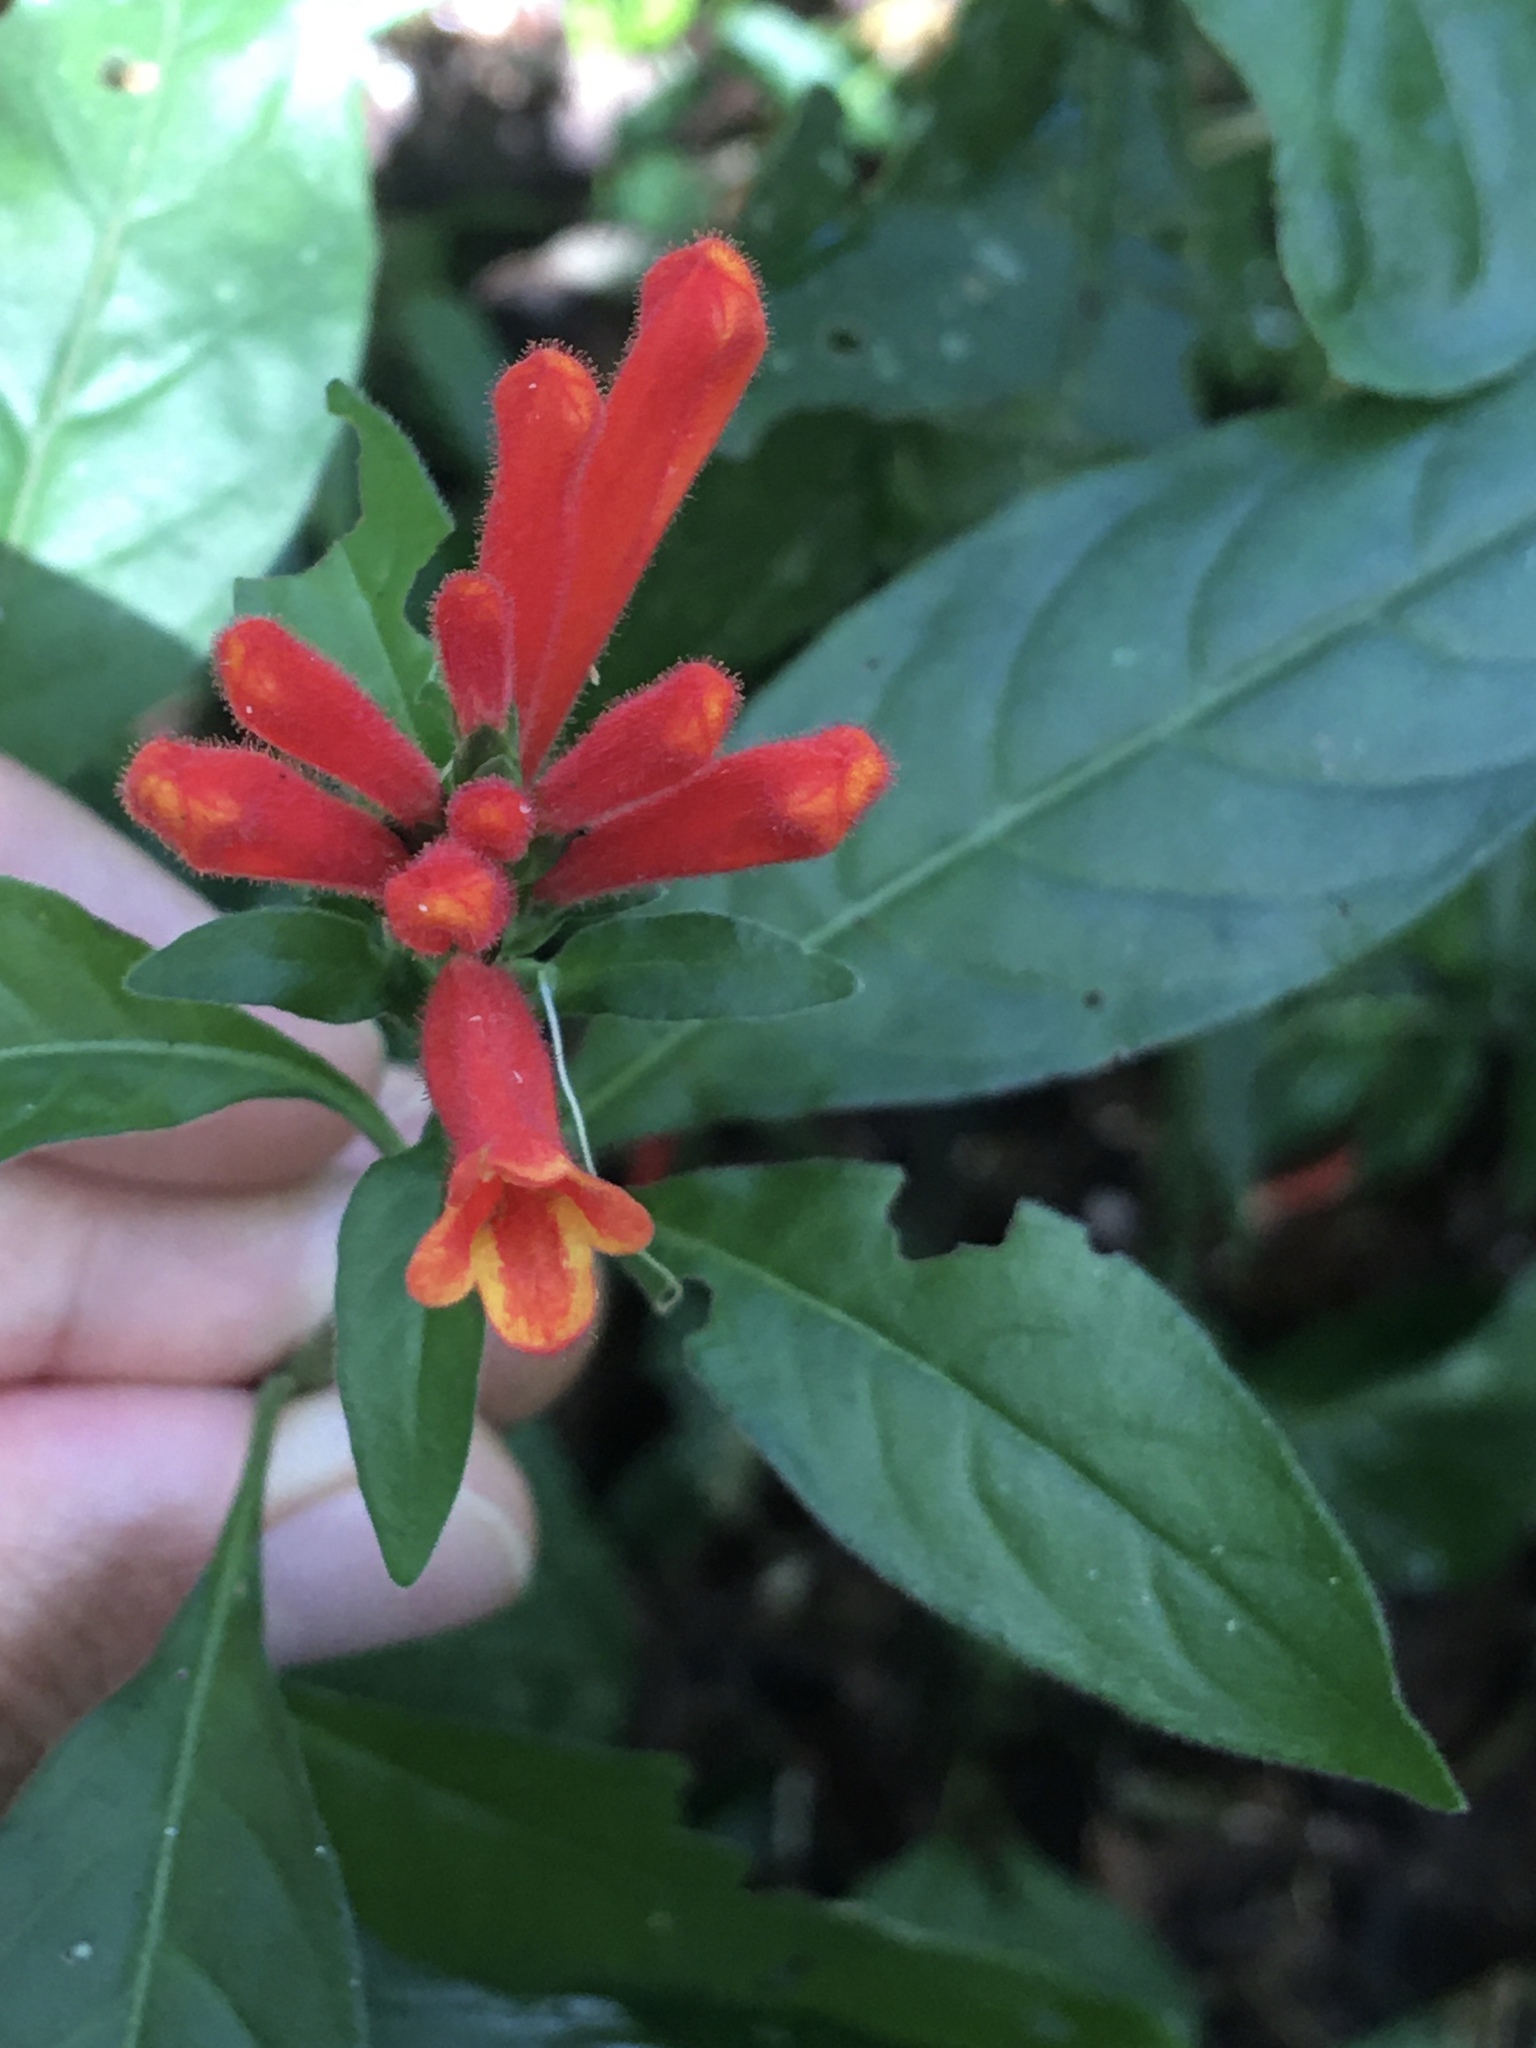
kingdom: Plantae
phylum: Tracheophyta
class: Magnoliopsida
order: Lamiales
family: Acanthaceae
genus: Aphelandra
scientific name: Aphelandra longiflora
